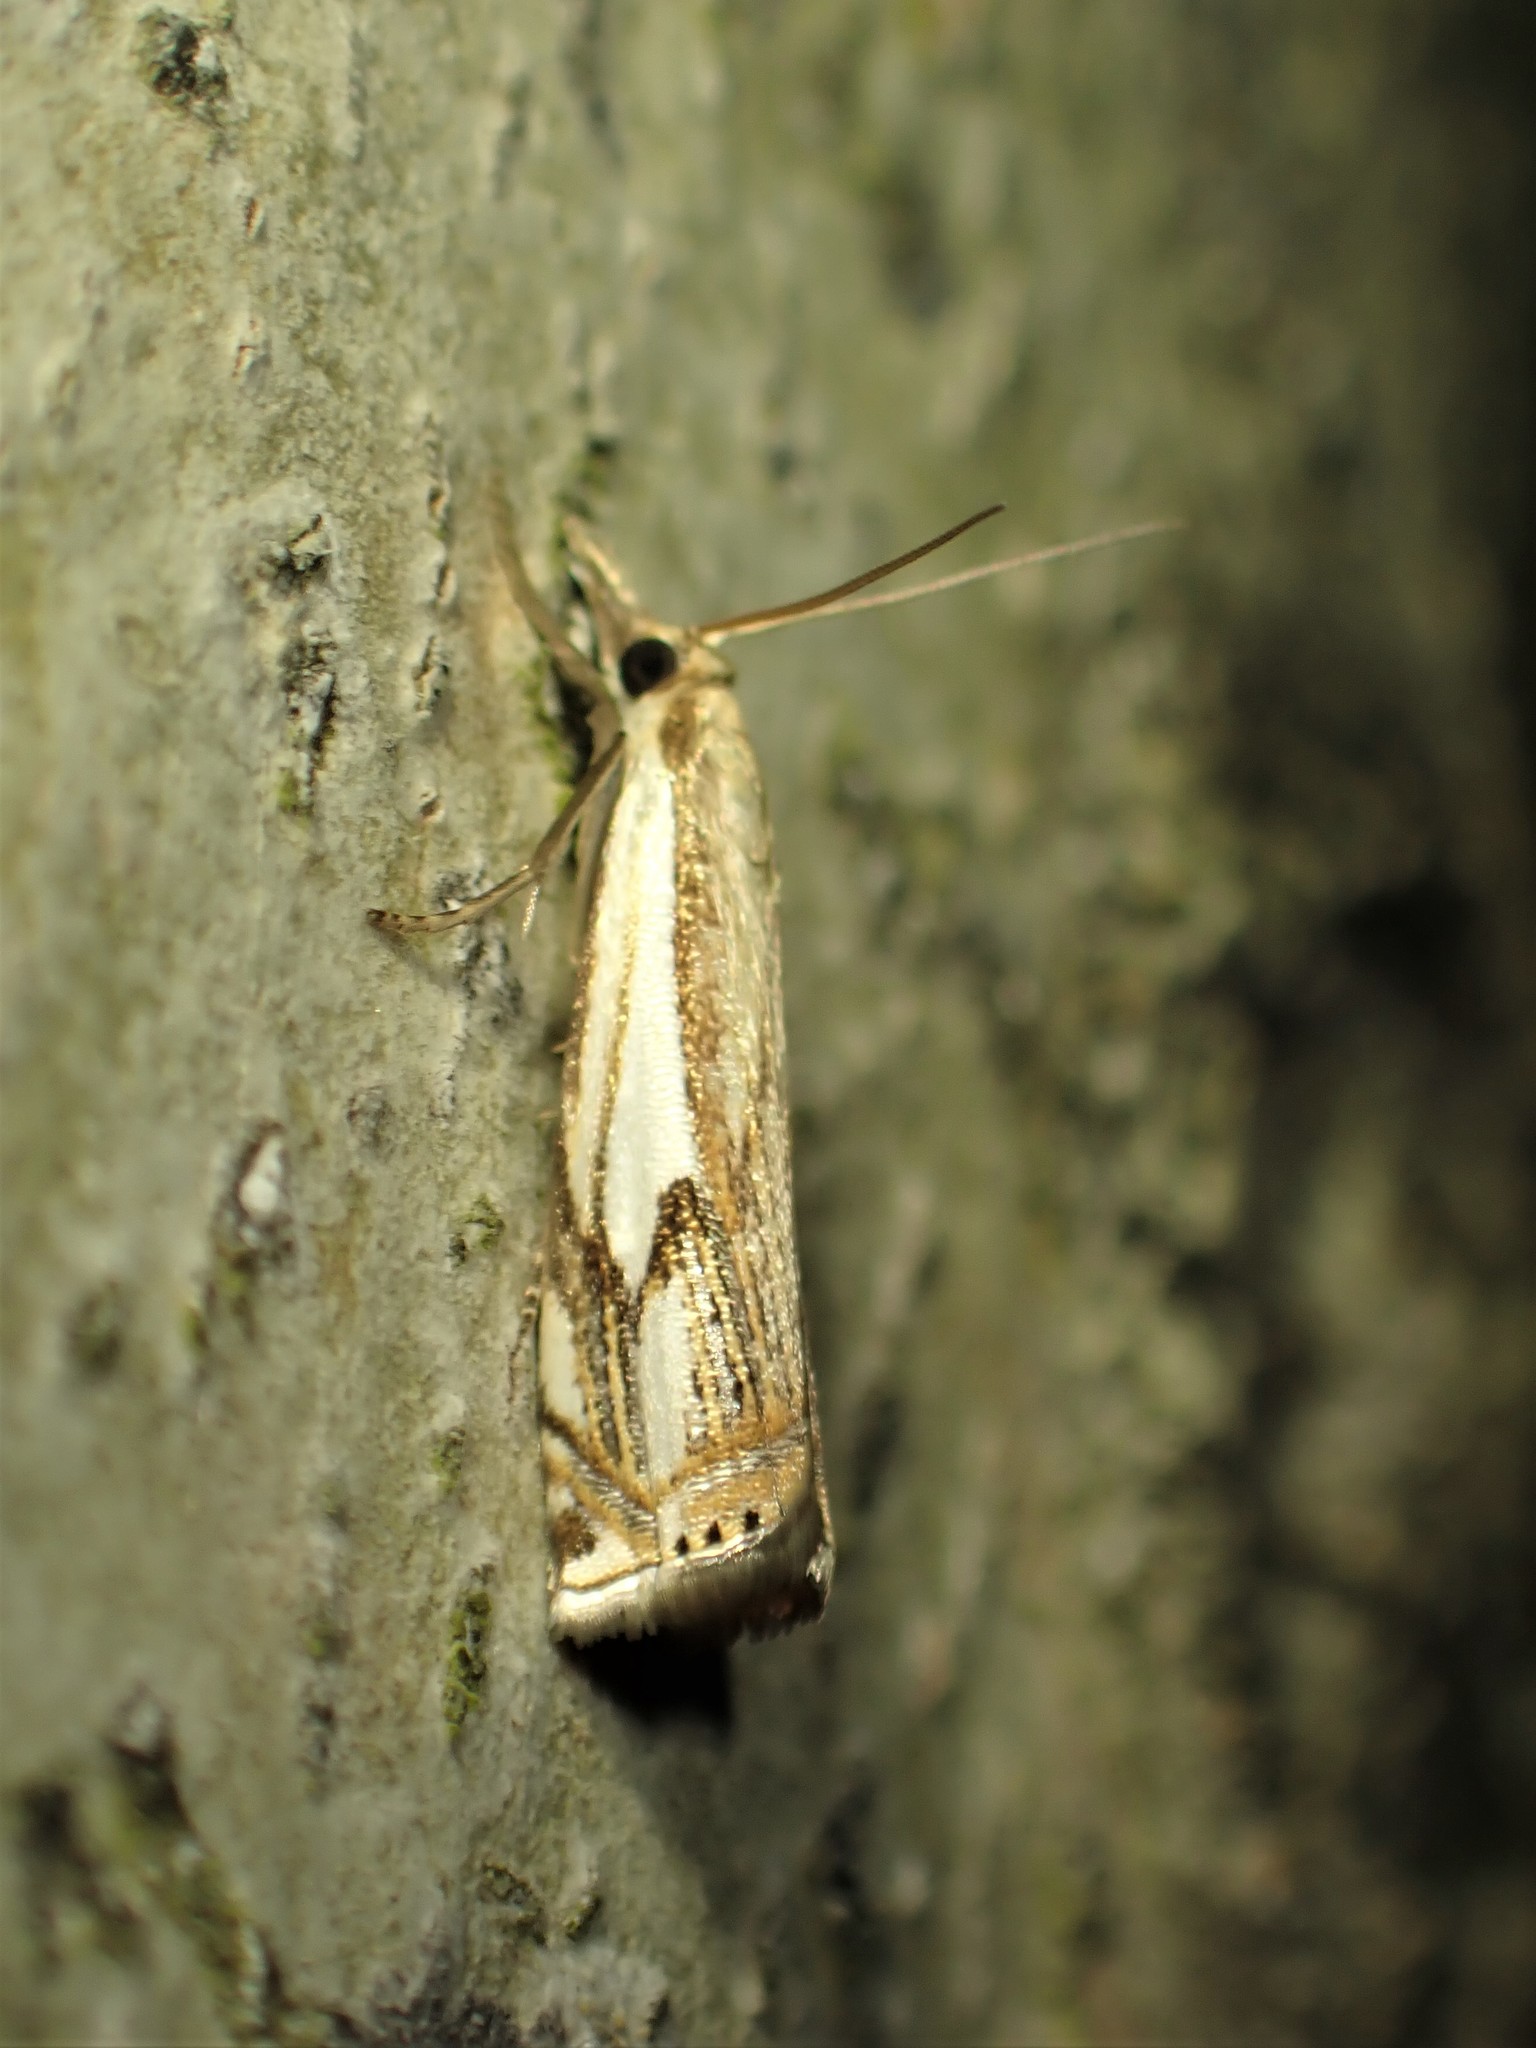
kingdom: Animalia
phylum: Arthropoda
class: Insecta
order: Lepidoptera
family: Crambidae
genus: Crambus
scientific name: Crambus agitatellus
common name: Double-banded grass-veneer
